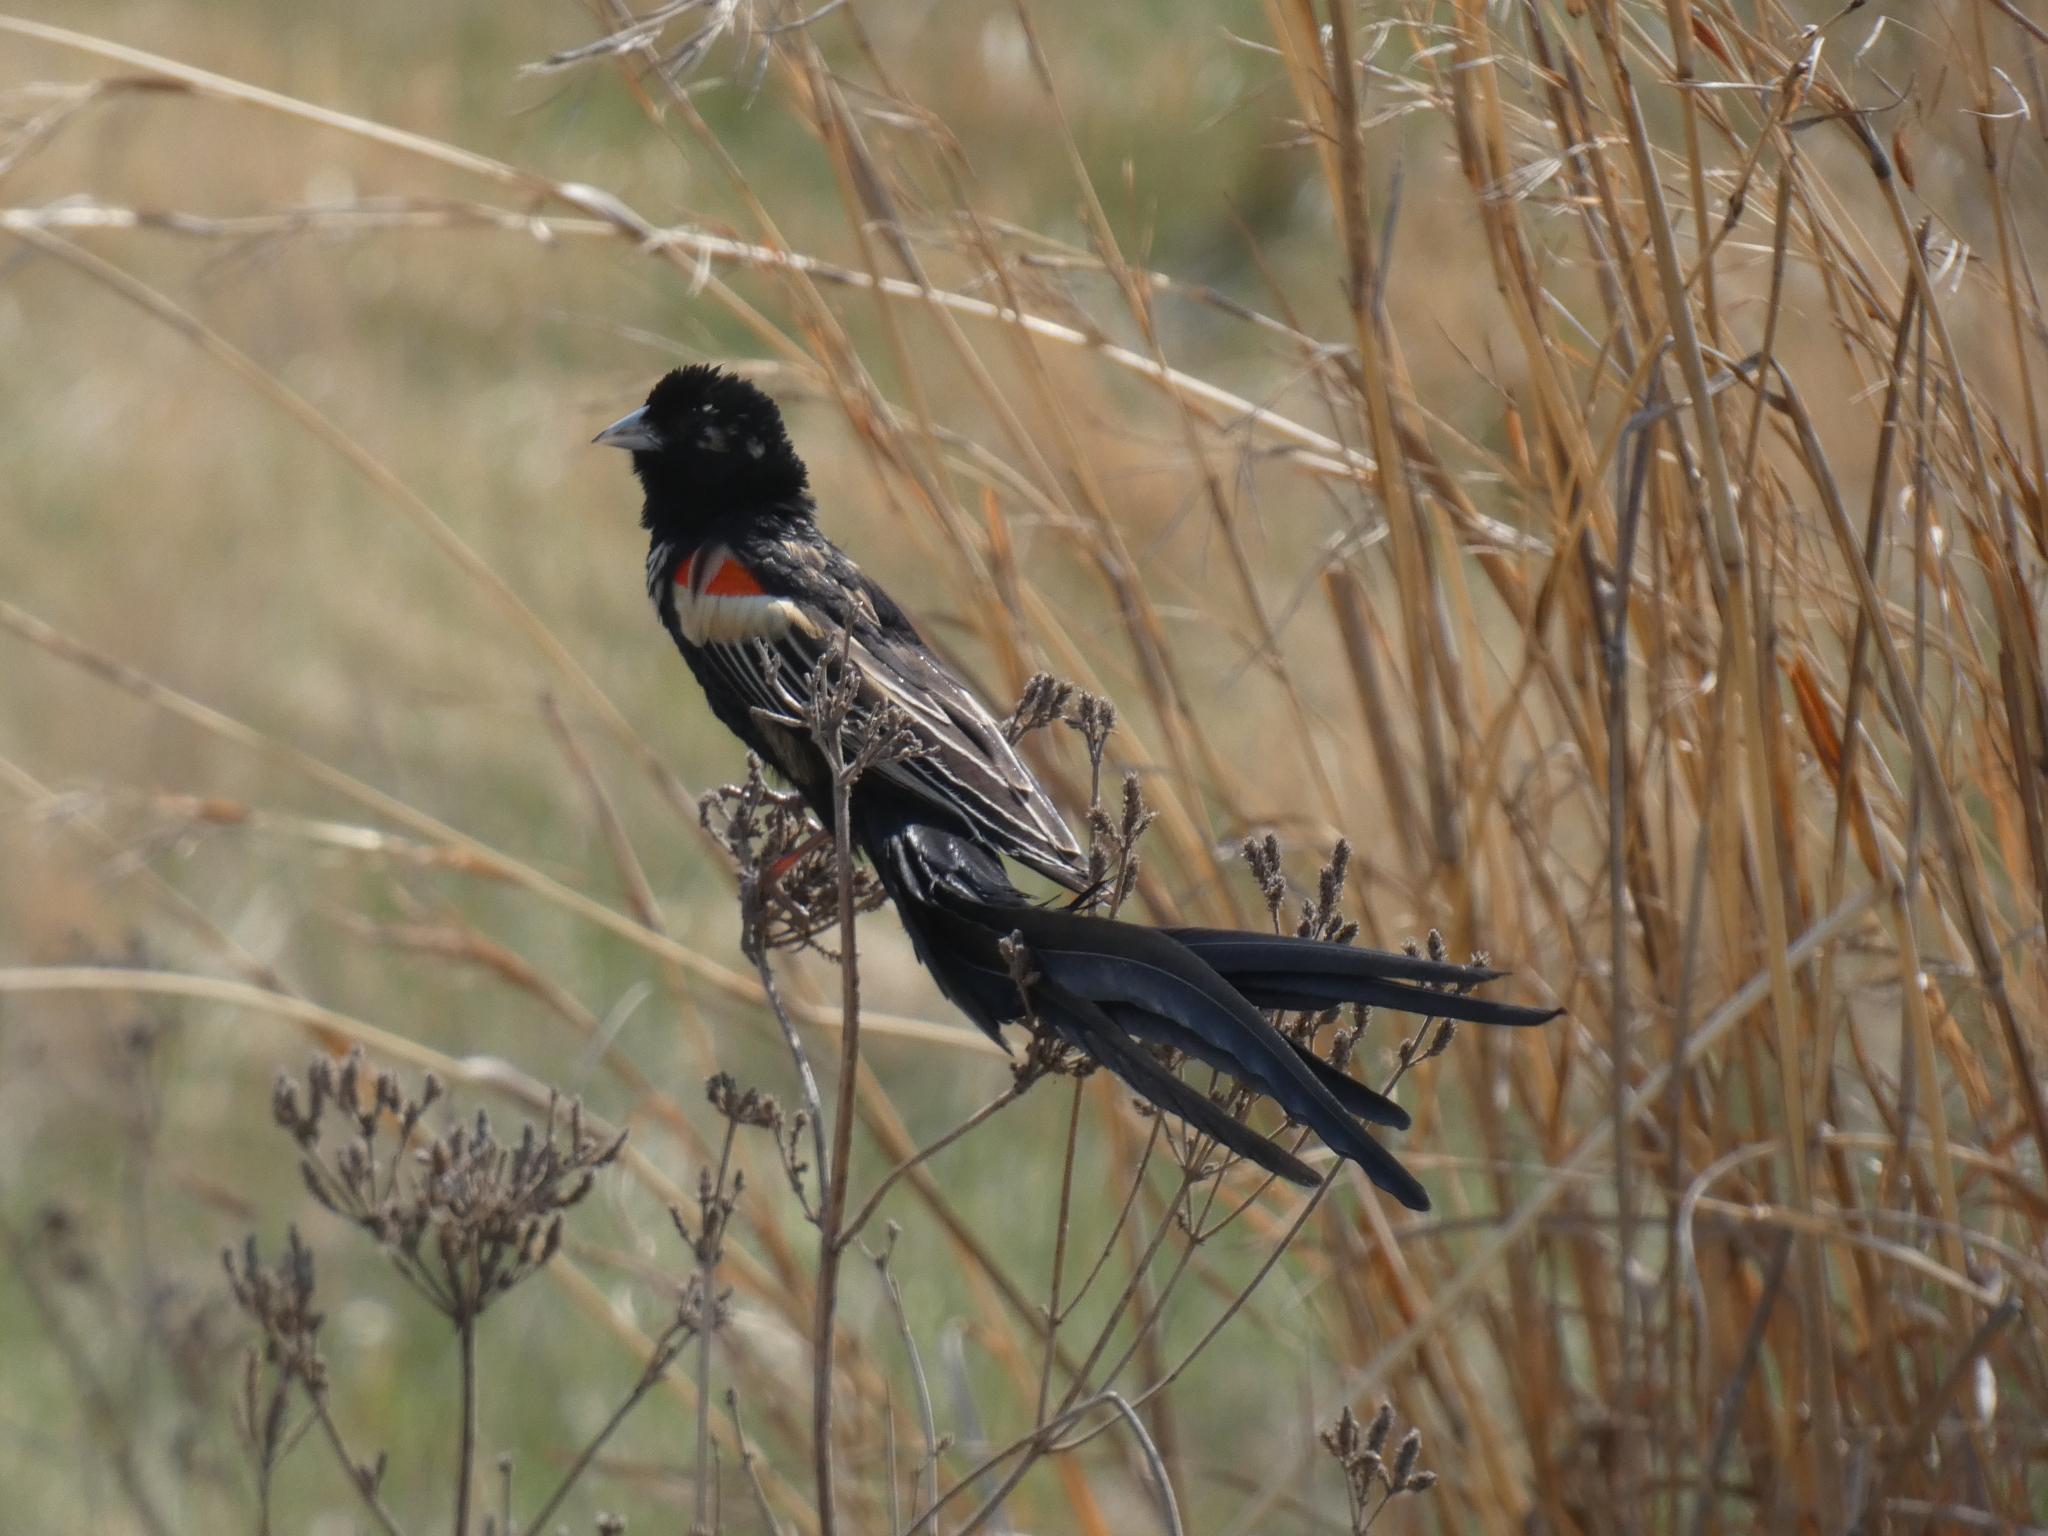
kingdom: Animalia
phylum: Chordata
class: Aves
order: Passeriformes
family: Ploceidae
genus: Euplectes
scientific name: Euplectes progne
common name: Long-tailed widowbird
